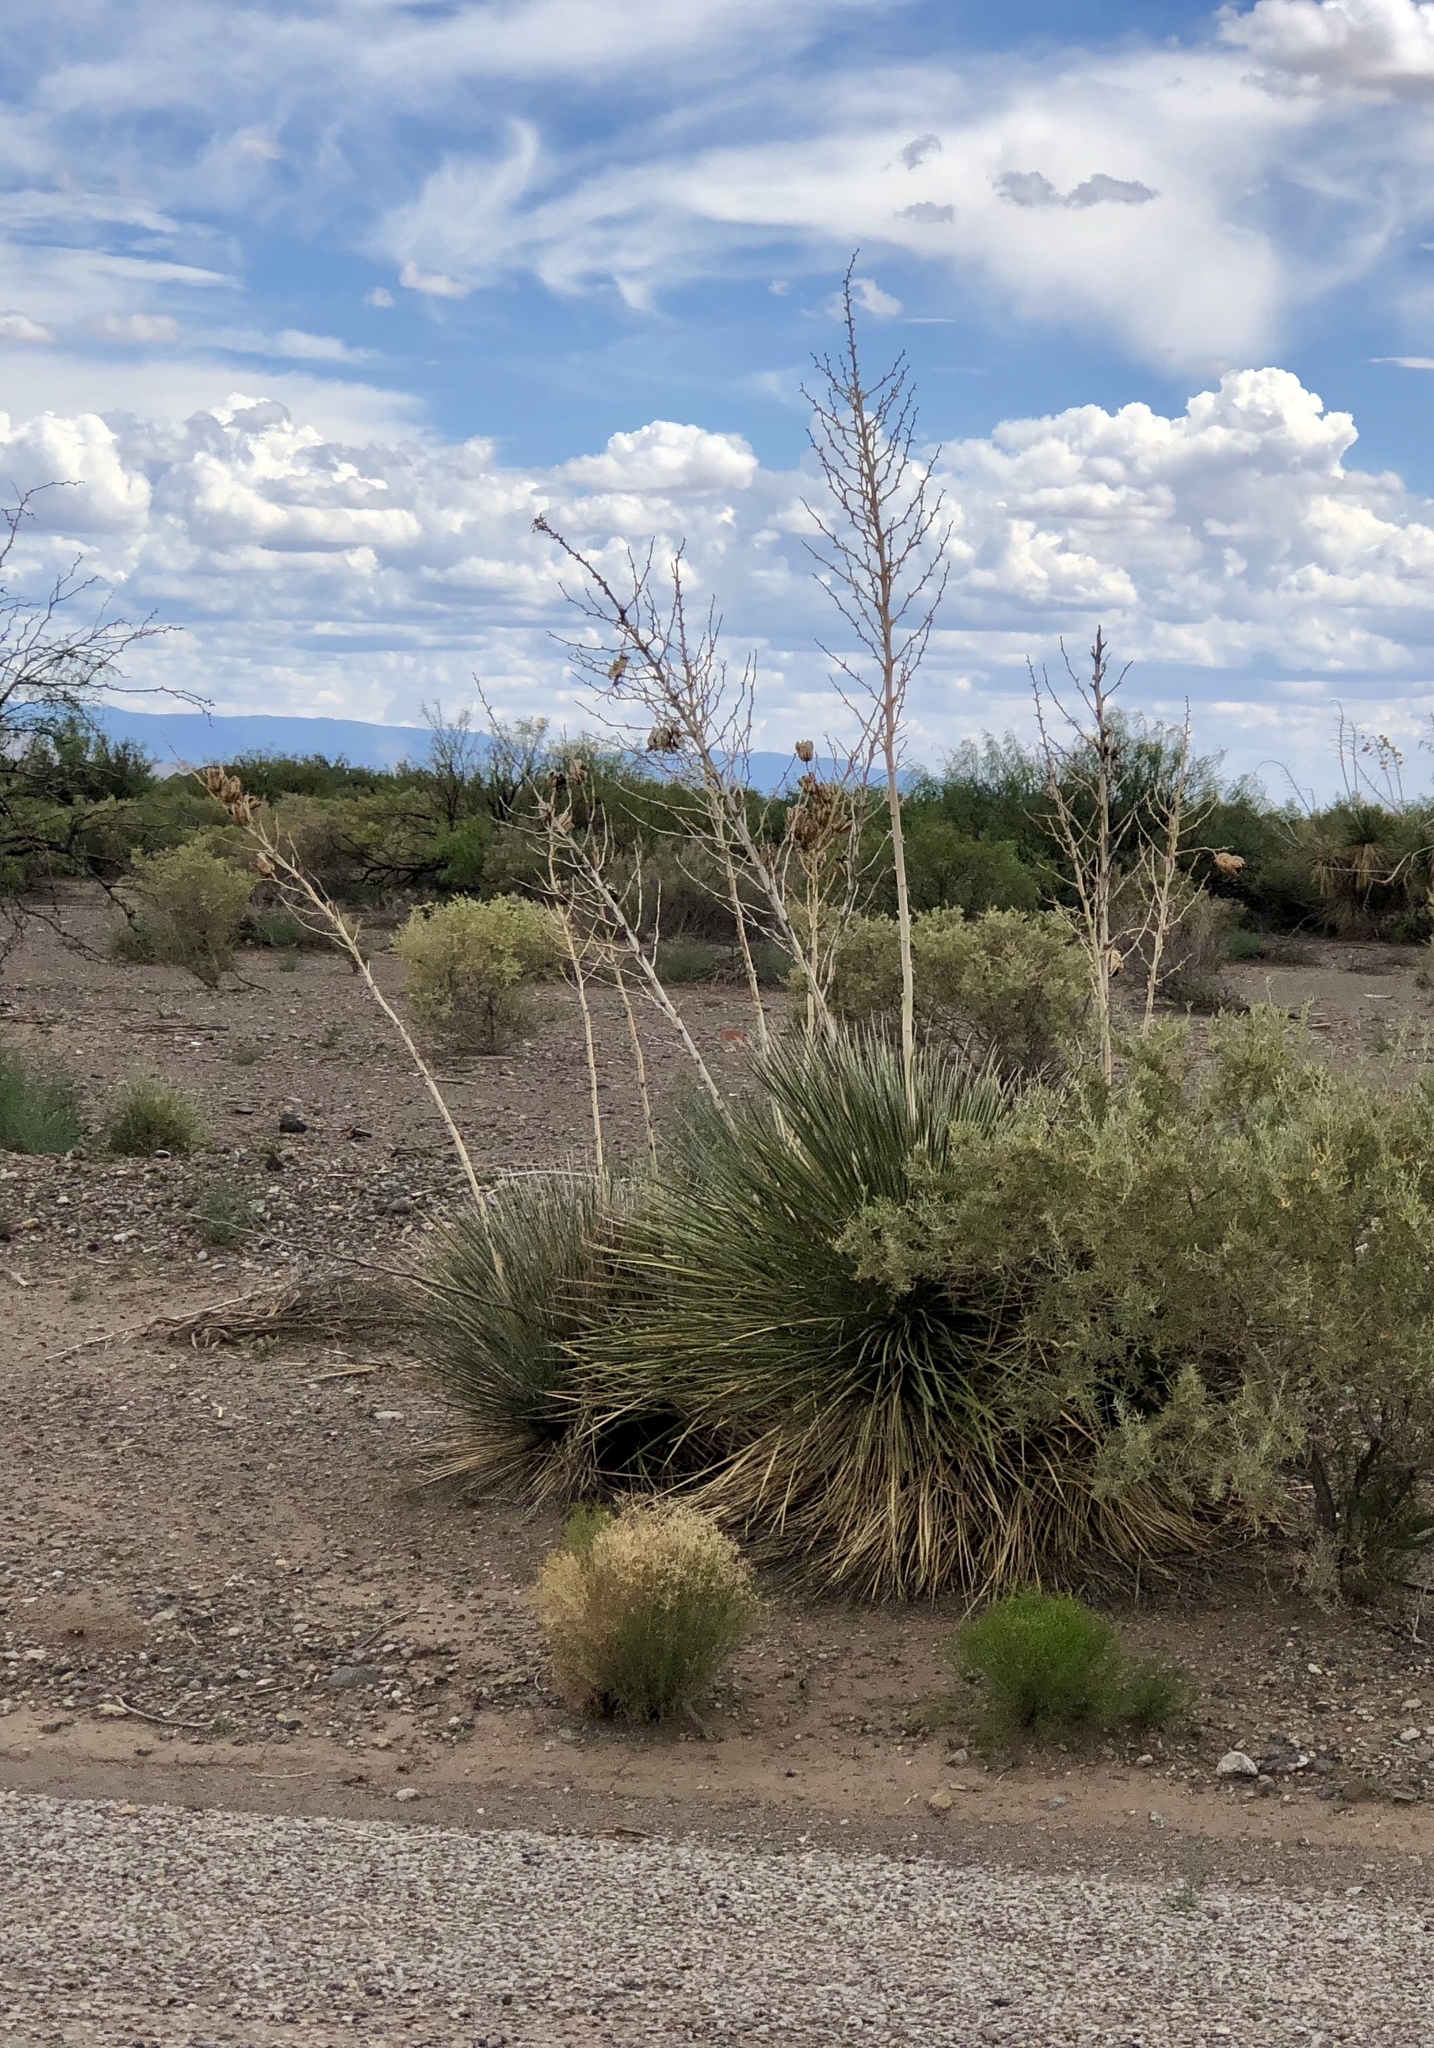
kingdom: Plantae
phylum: Tracheophyta
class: Liliopsida
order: Asparagales
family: Asparagaceae
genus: Yucca
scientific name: Yucca elata
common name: Palmella
